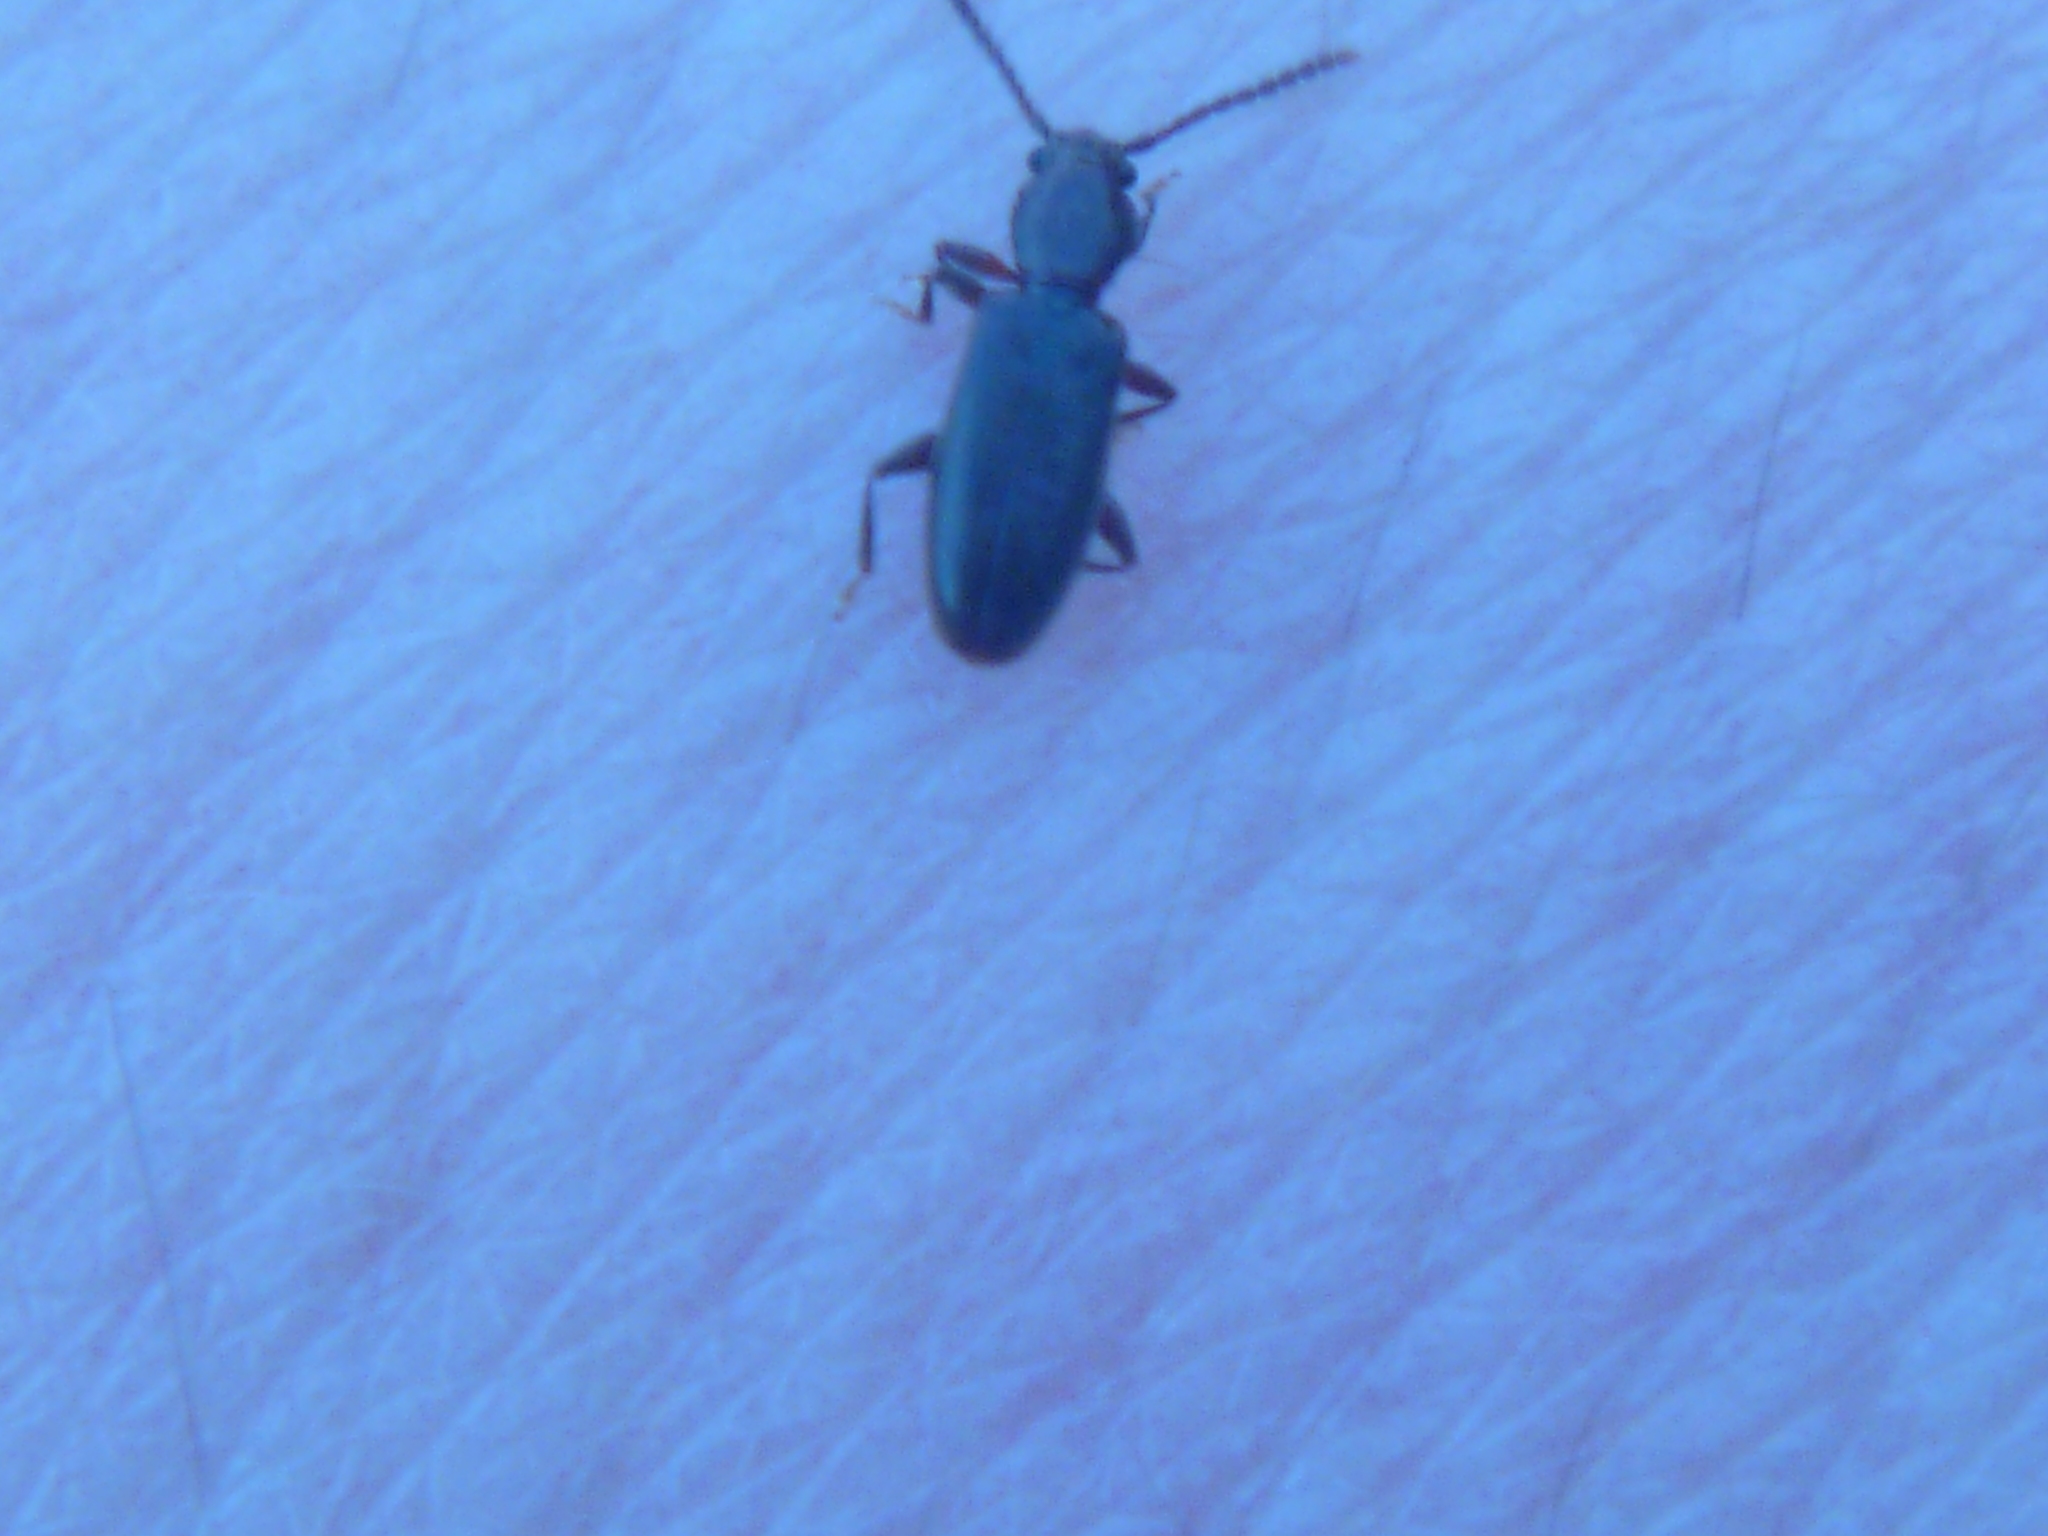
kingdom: Animalia
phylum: Arthropoda
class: Insecta
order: Coleoptera
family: Silvanidae
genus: Cryptamorpha
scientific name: Cryptamorpha brevicornis
